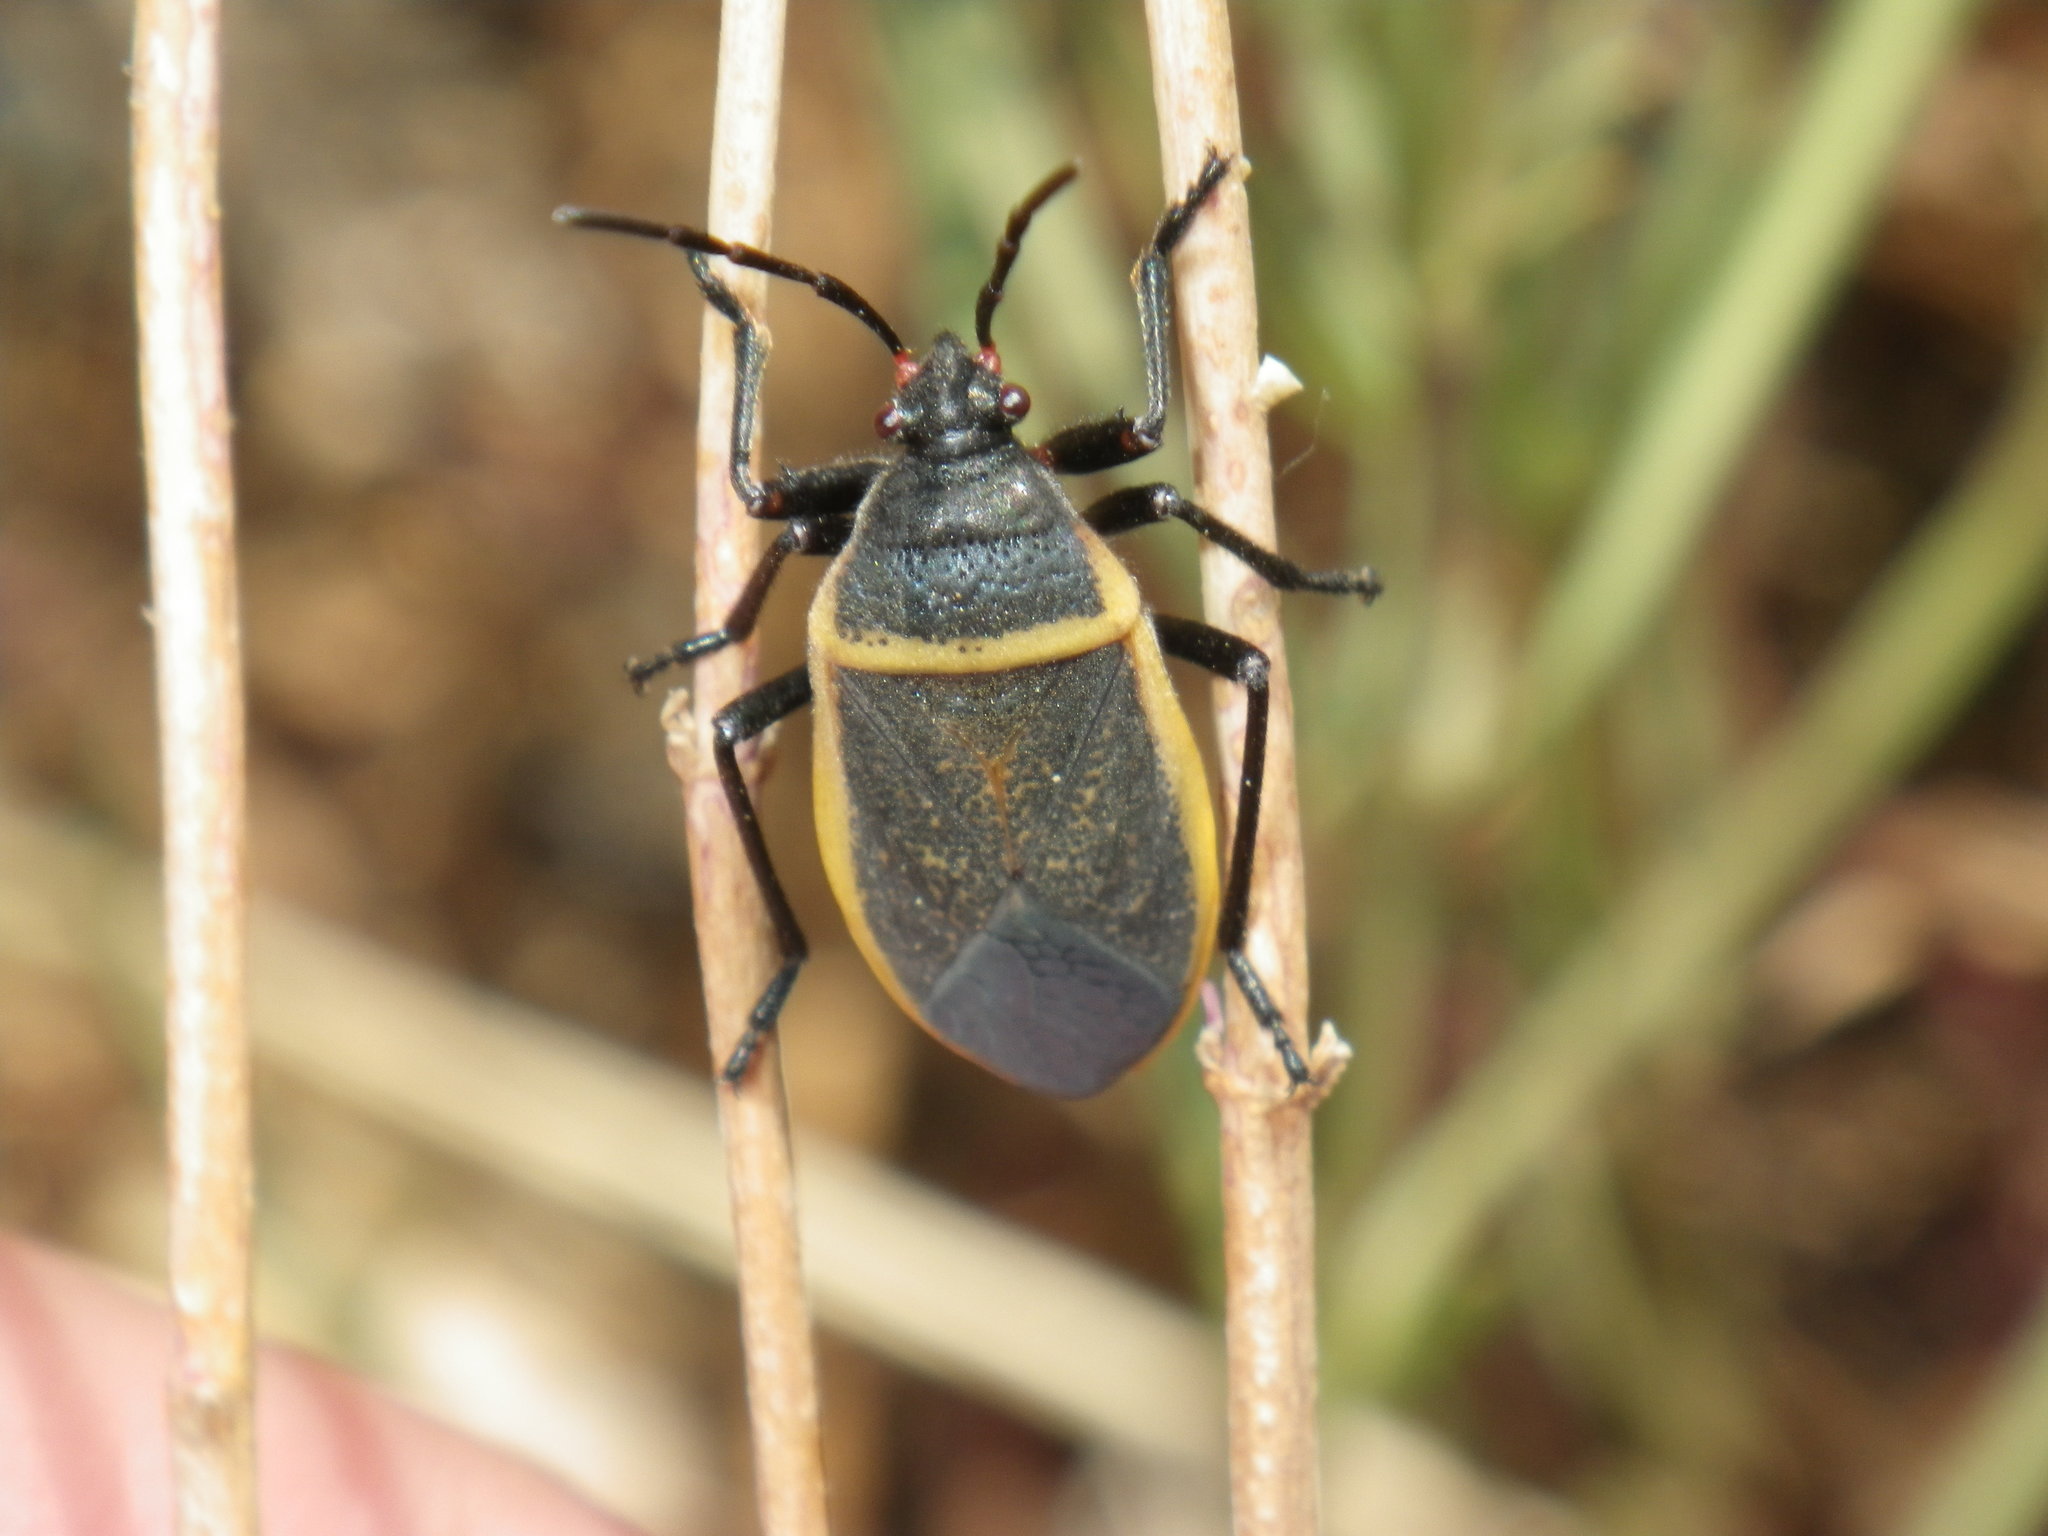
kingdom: Animalia
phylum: Arthropoda
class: Insecta
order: Hemiptera
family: Largidae
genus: Largus
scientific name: Largus californicus
